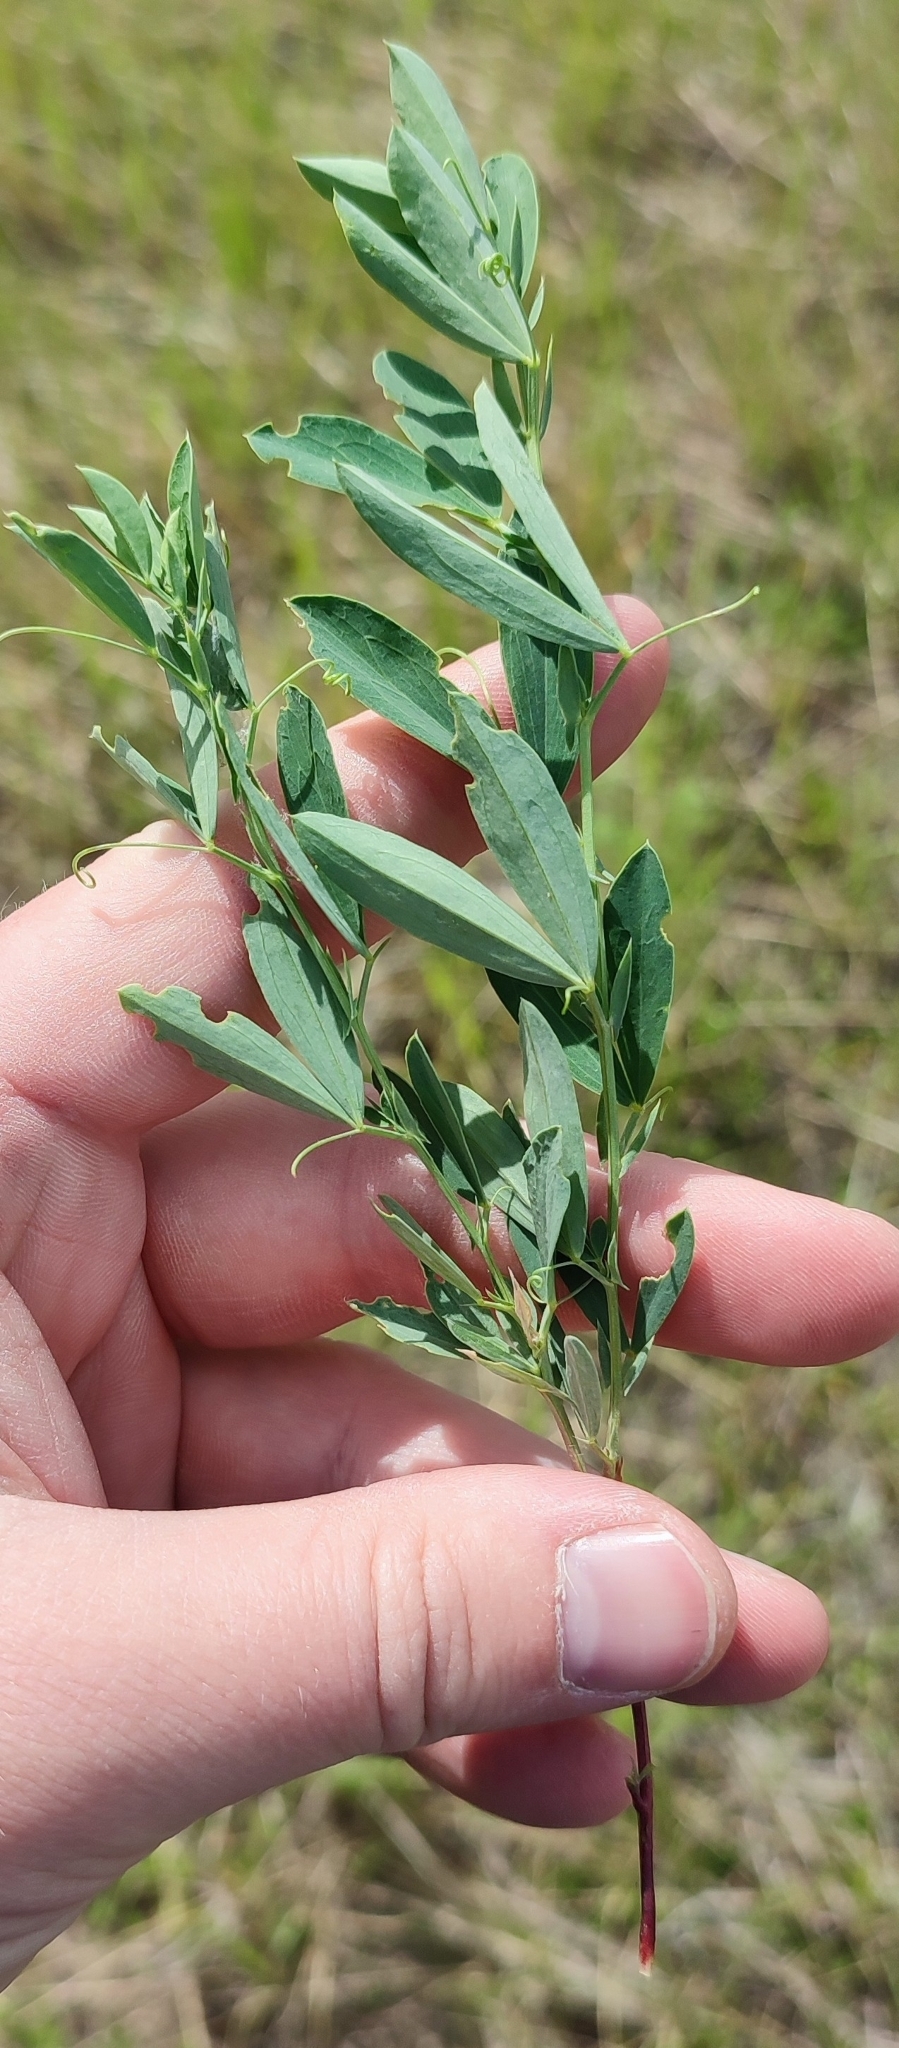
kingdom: Plantae
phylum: Tracheophyta
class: Magnoliopsida
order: Fabales
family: Fabaceae
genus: Lathyrus
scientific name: Lathyrus tuberosus
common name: Tuberous pea
